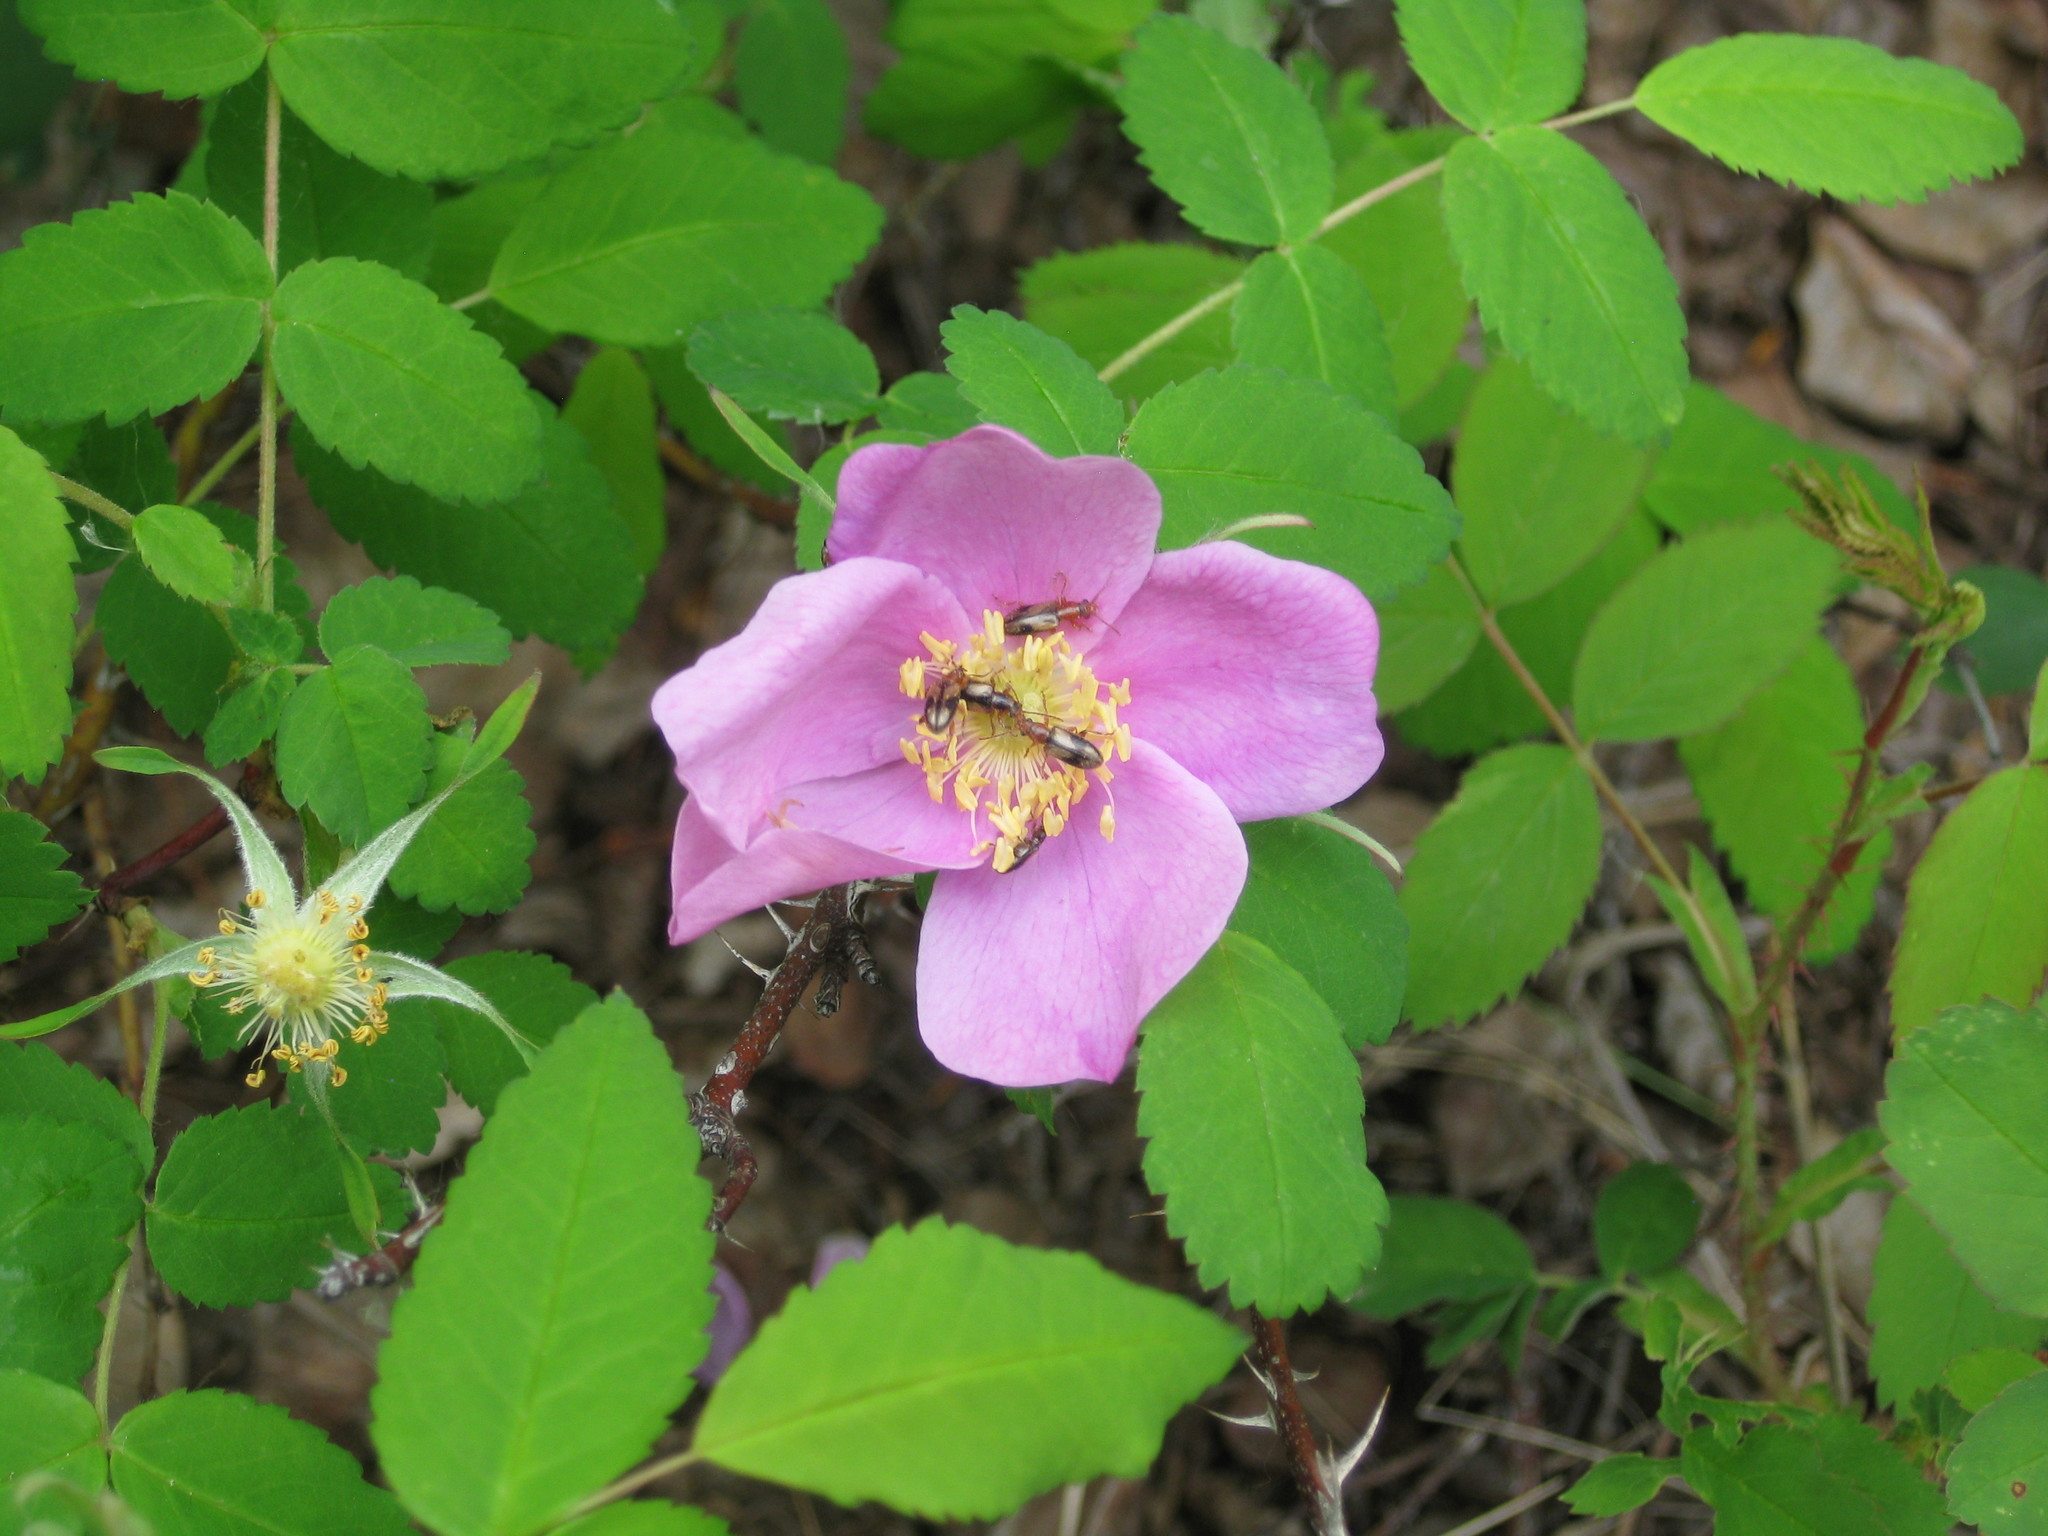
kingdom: Plantae
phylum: Tracheophyta
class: Magnoliopsida
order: Rosales
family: Rosaceae
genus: Rosa
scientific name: Rosa acicularis
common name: Prickly rose
